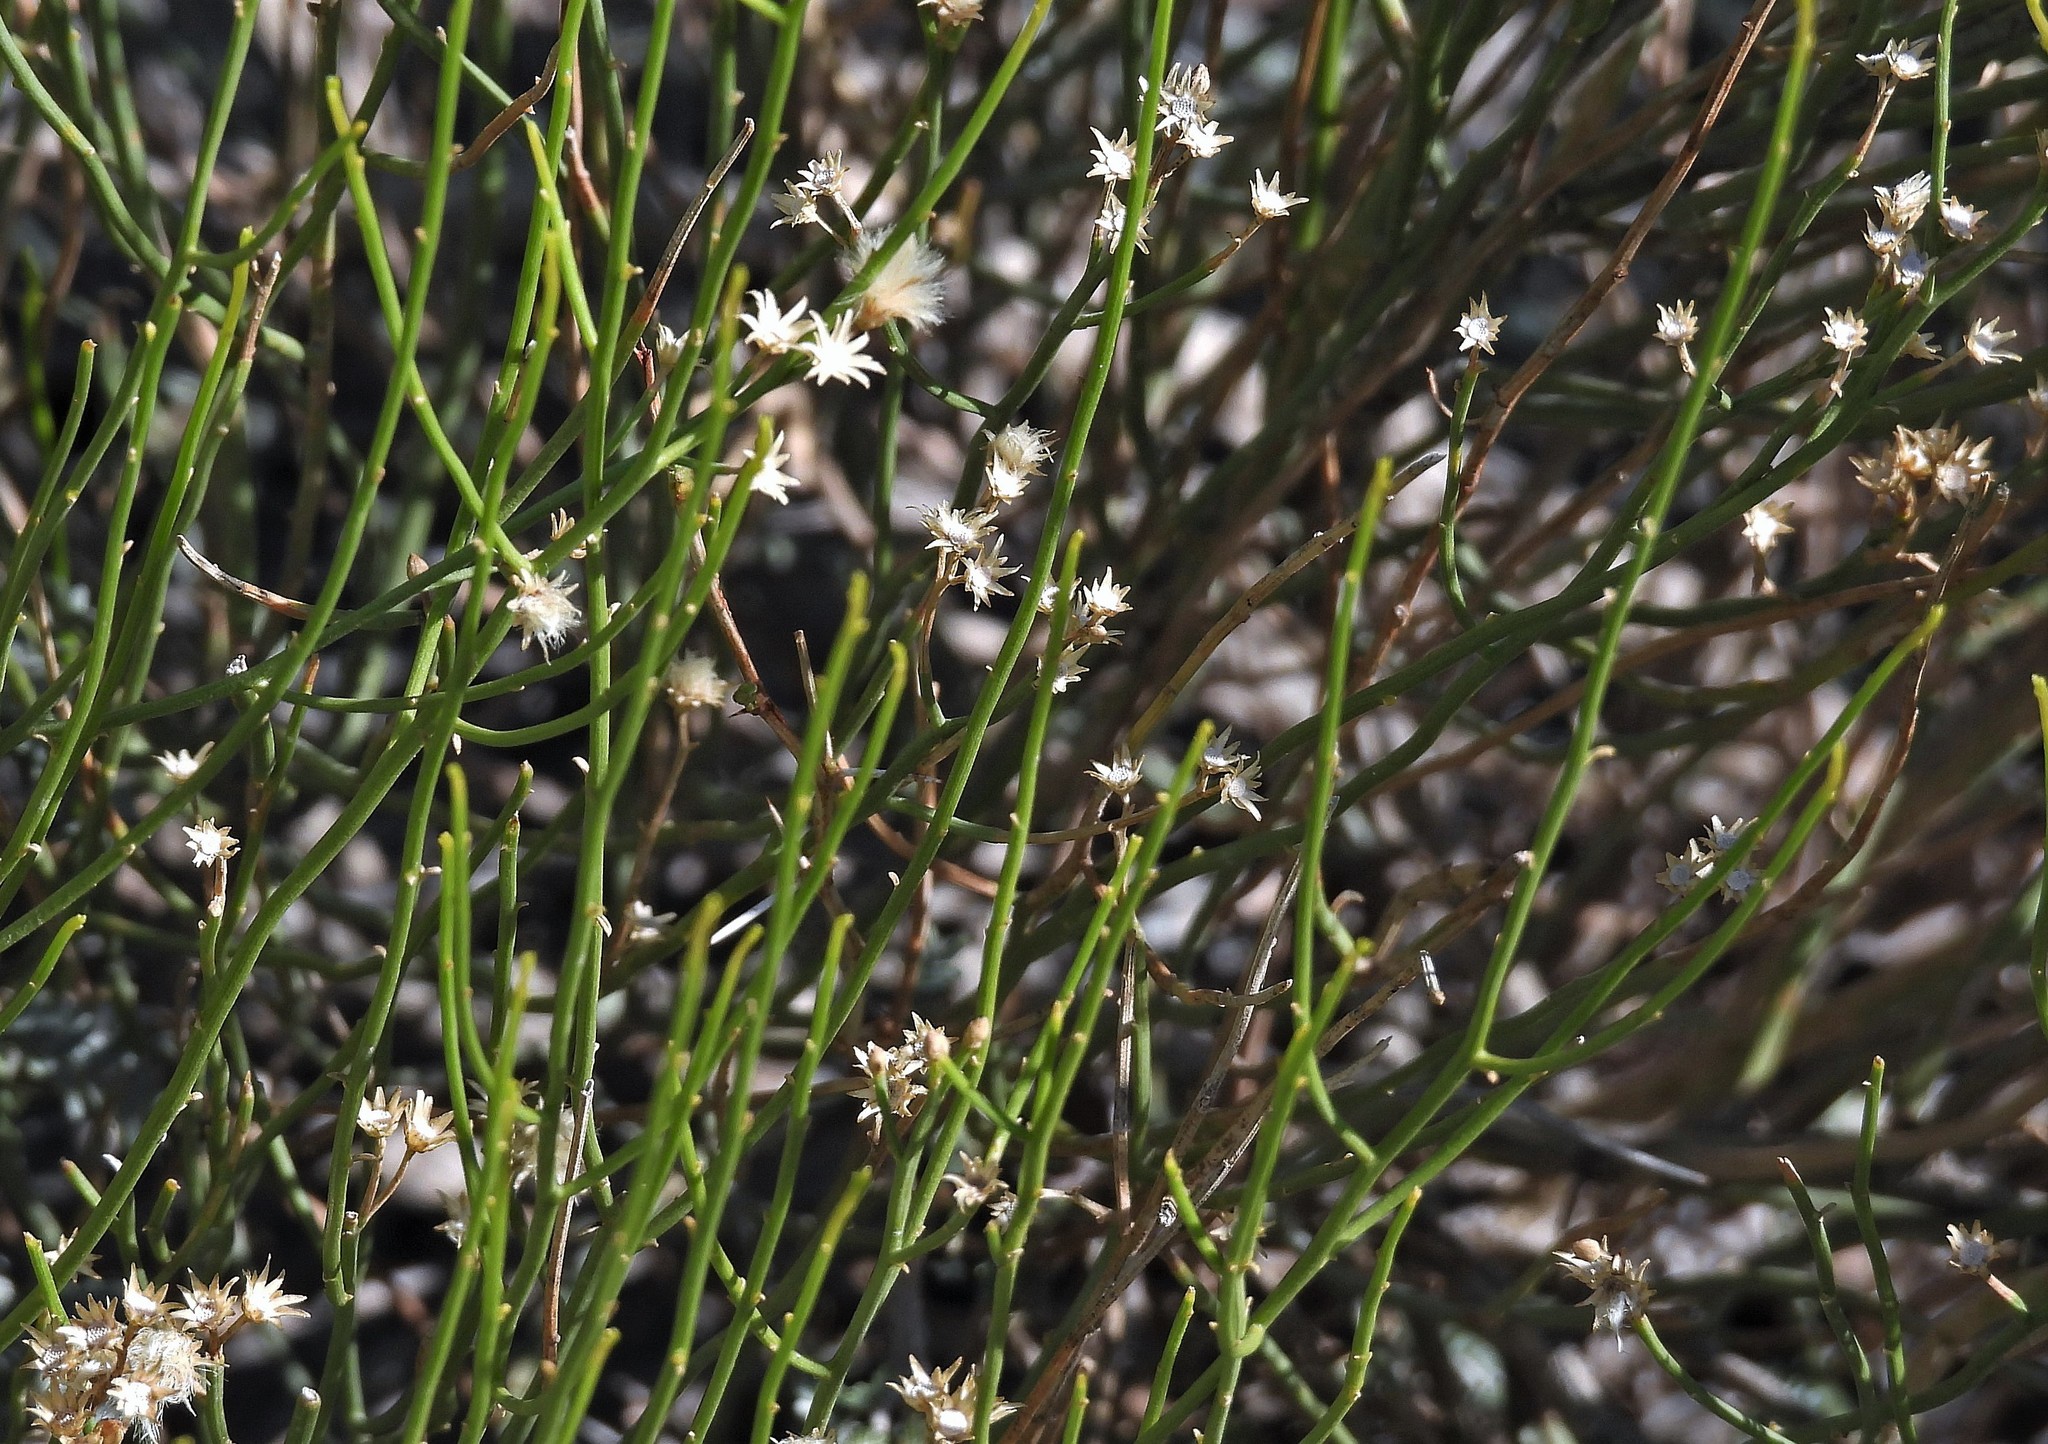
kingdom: Plantae
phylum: Tracheophyta
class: Magnoliopsida
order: Asterales
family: Asteraceae
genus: Pseudobaccharis
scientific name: Pseudobaccharis spartioides
